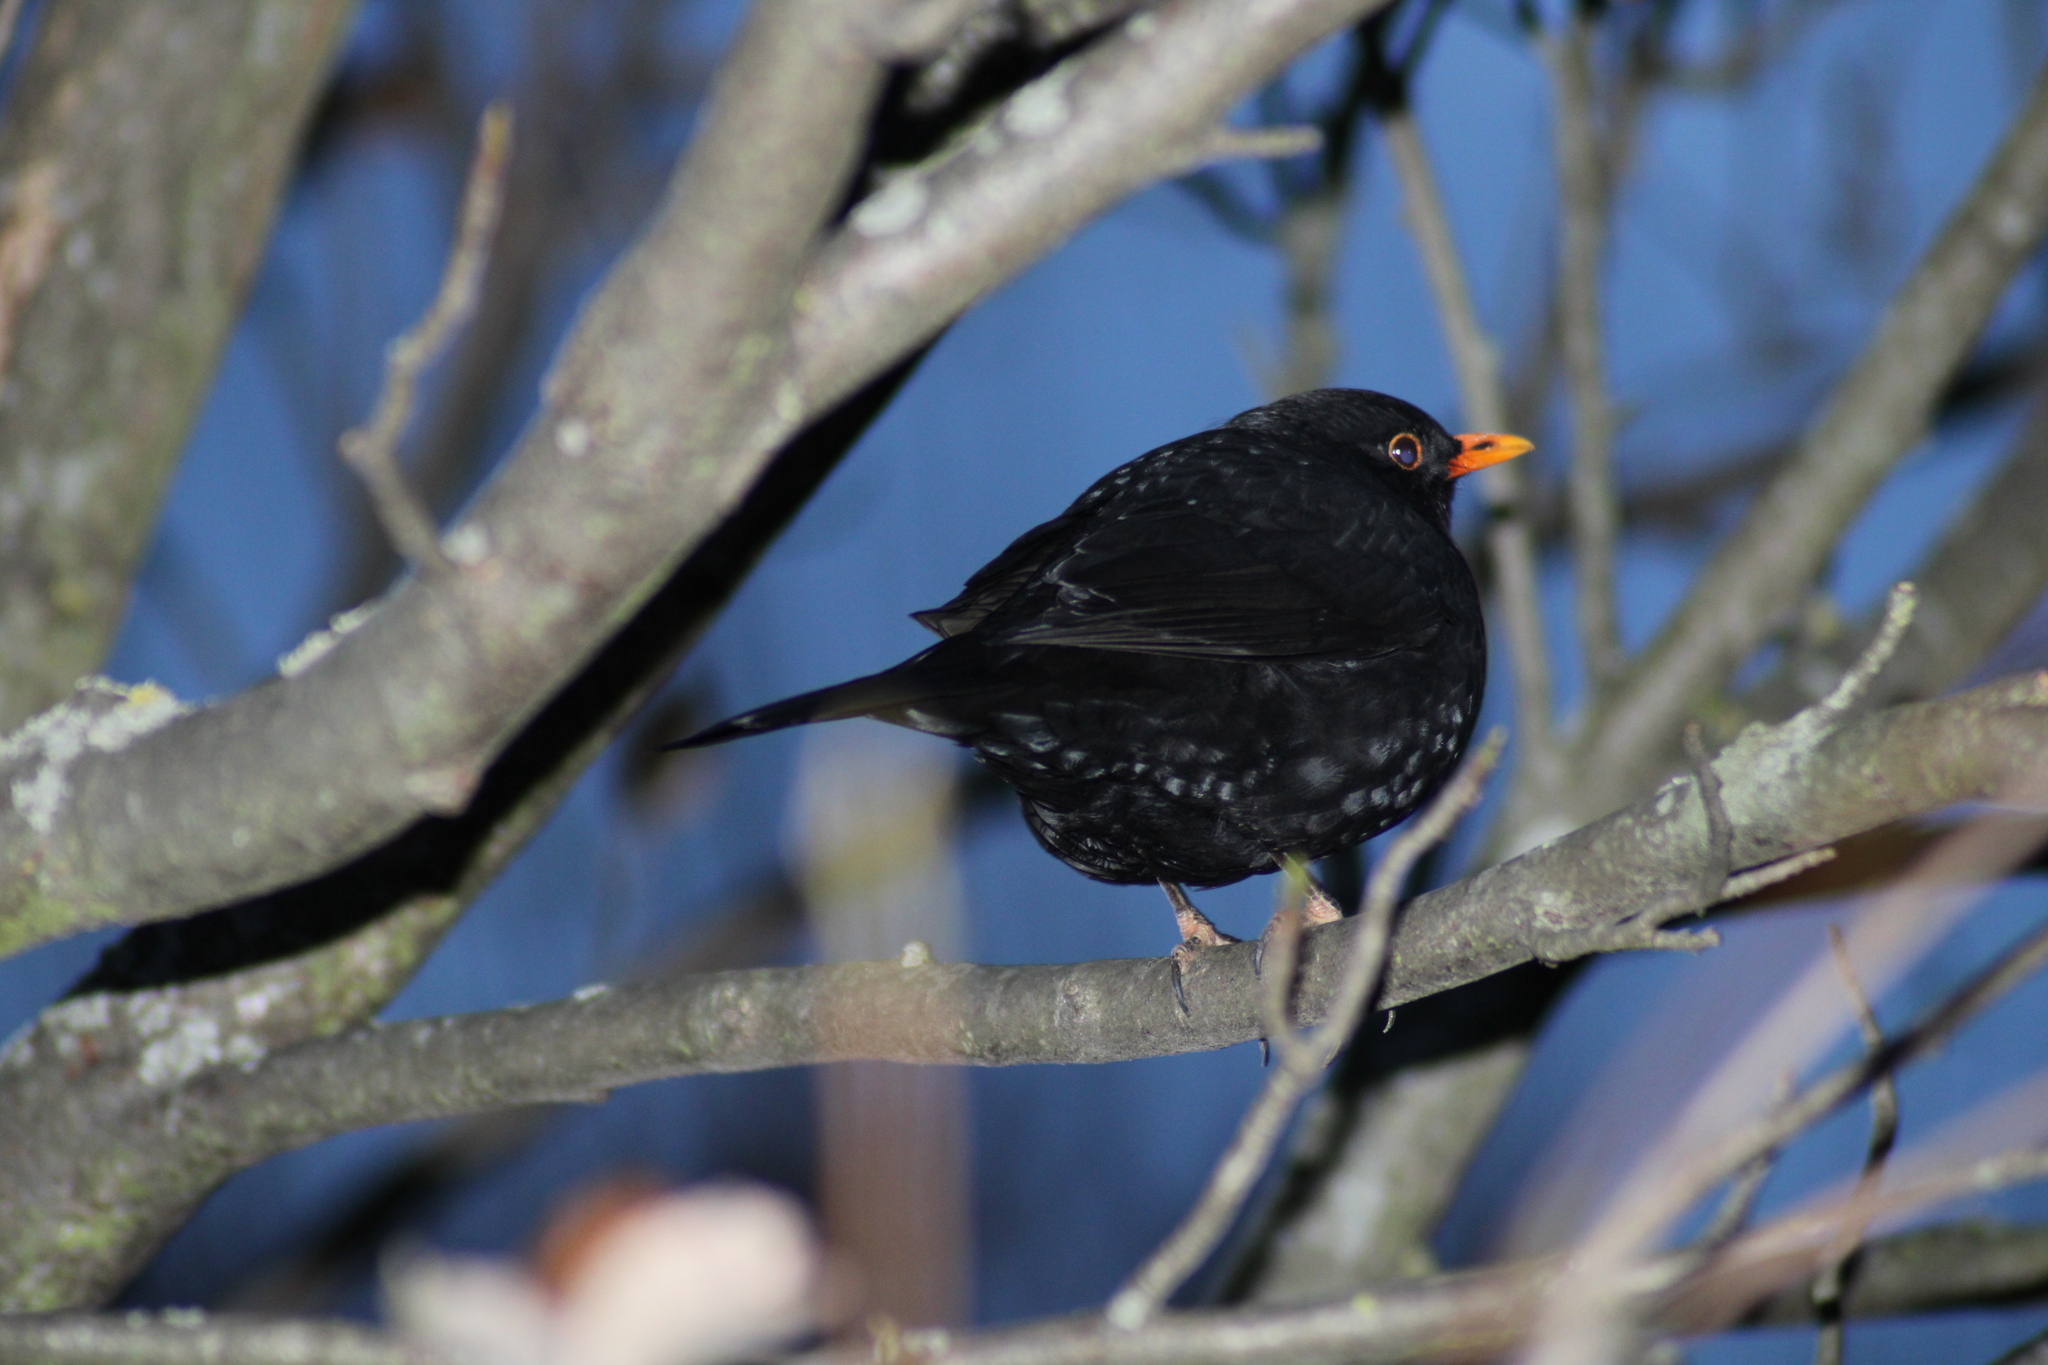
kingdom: Animalia
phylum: Chordata
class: Aves
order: Passeriformes
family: Turdidae
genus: Turdus
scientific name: Turdus merula
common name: Common blackbird
